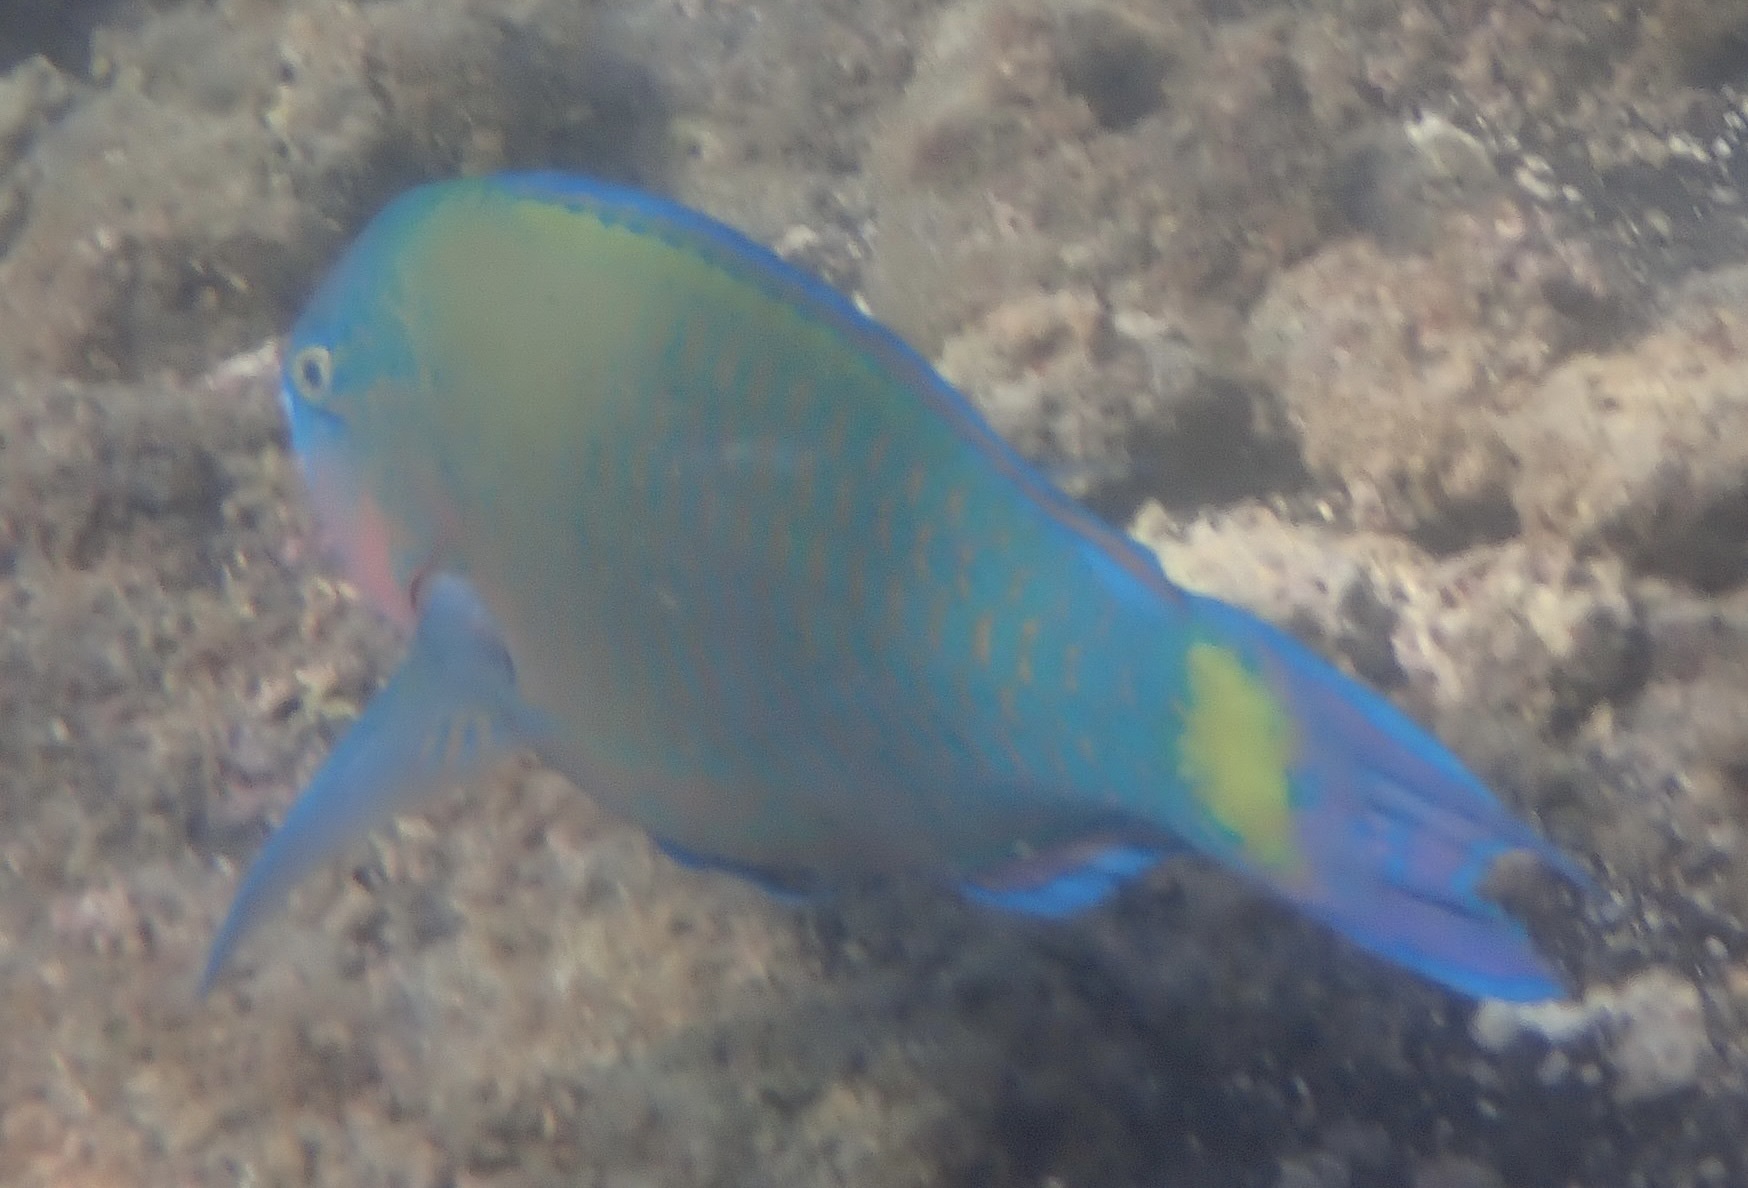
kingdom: Animalia
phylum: Chordata
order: Perciformes
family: Scaridae
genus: Scarus
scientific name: Scarus psittacus
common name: Palenose parrotfish
